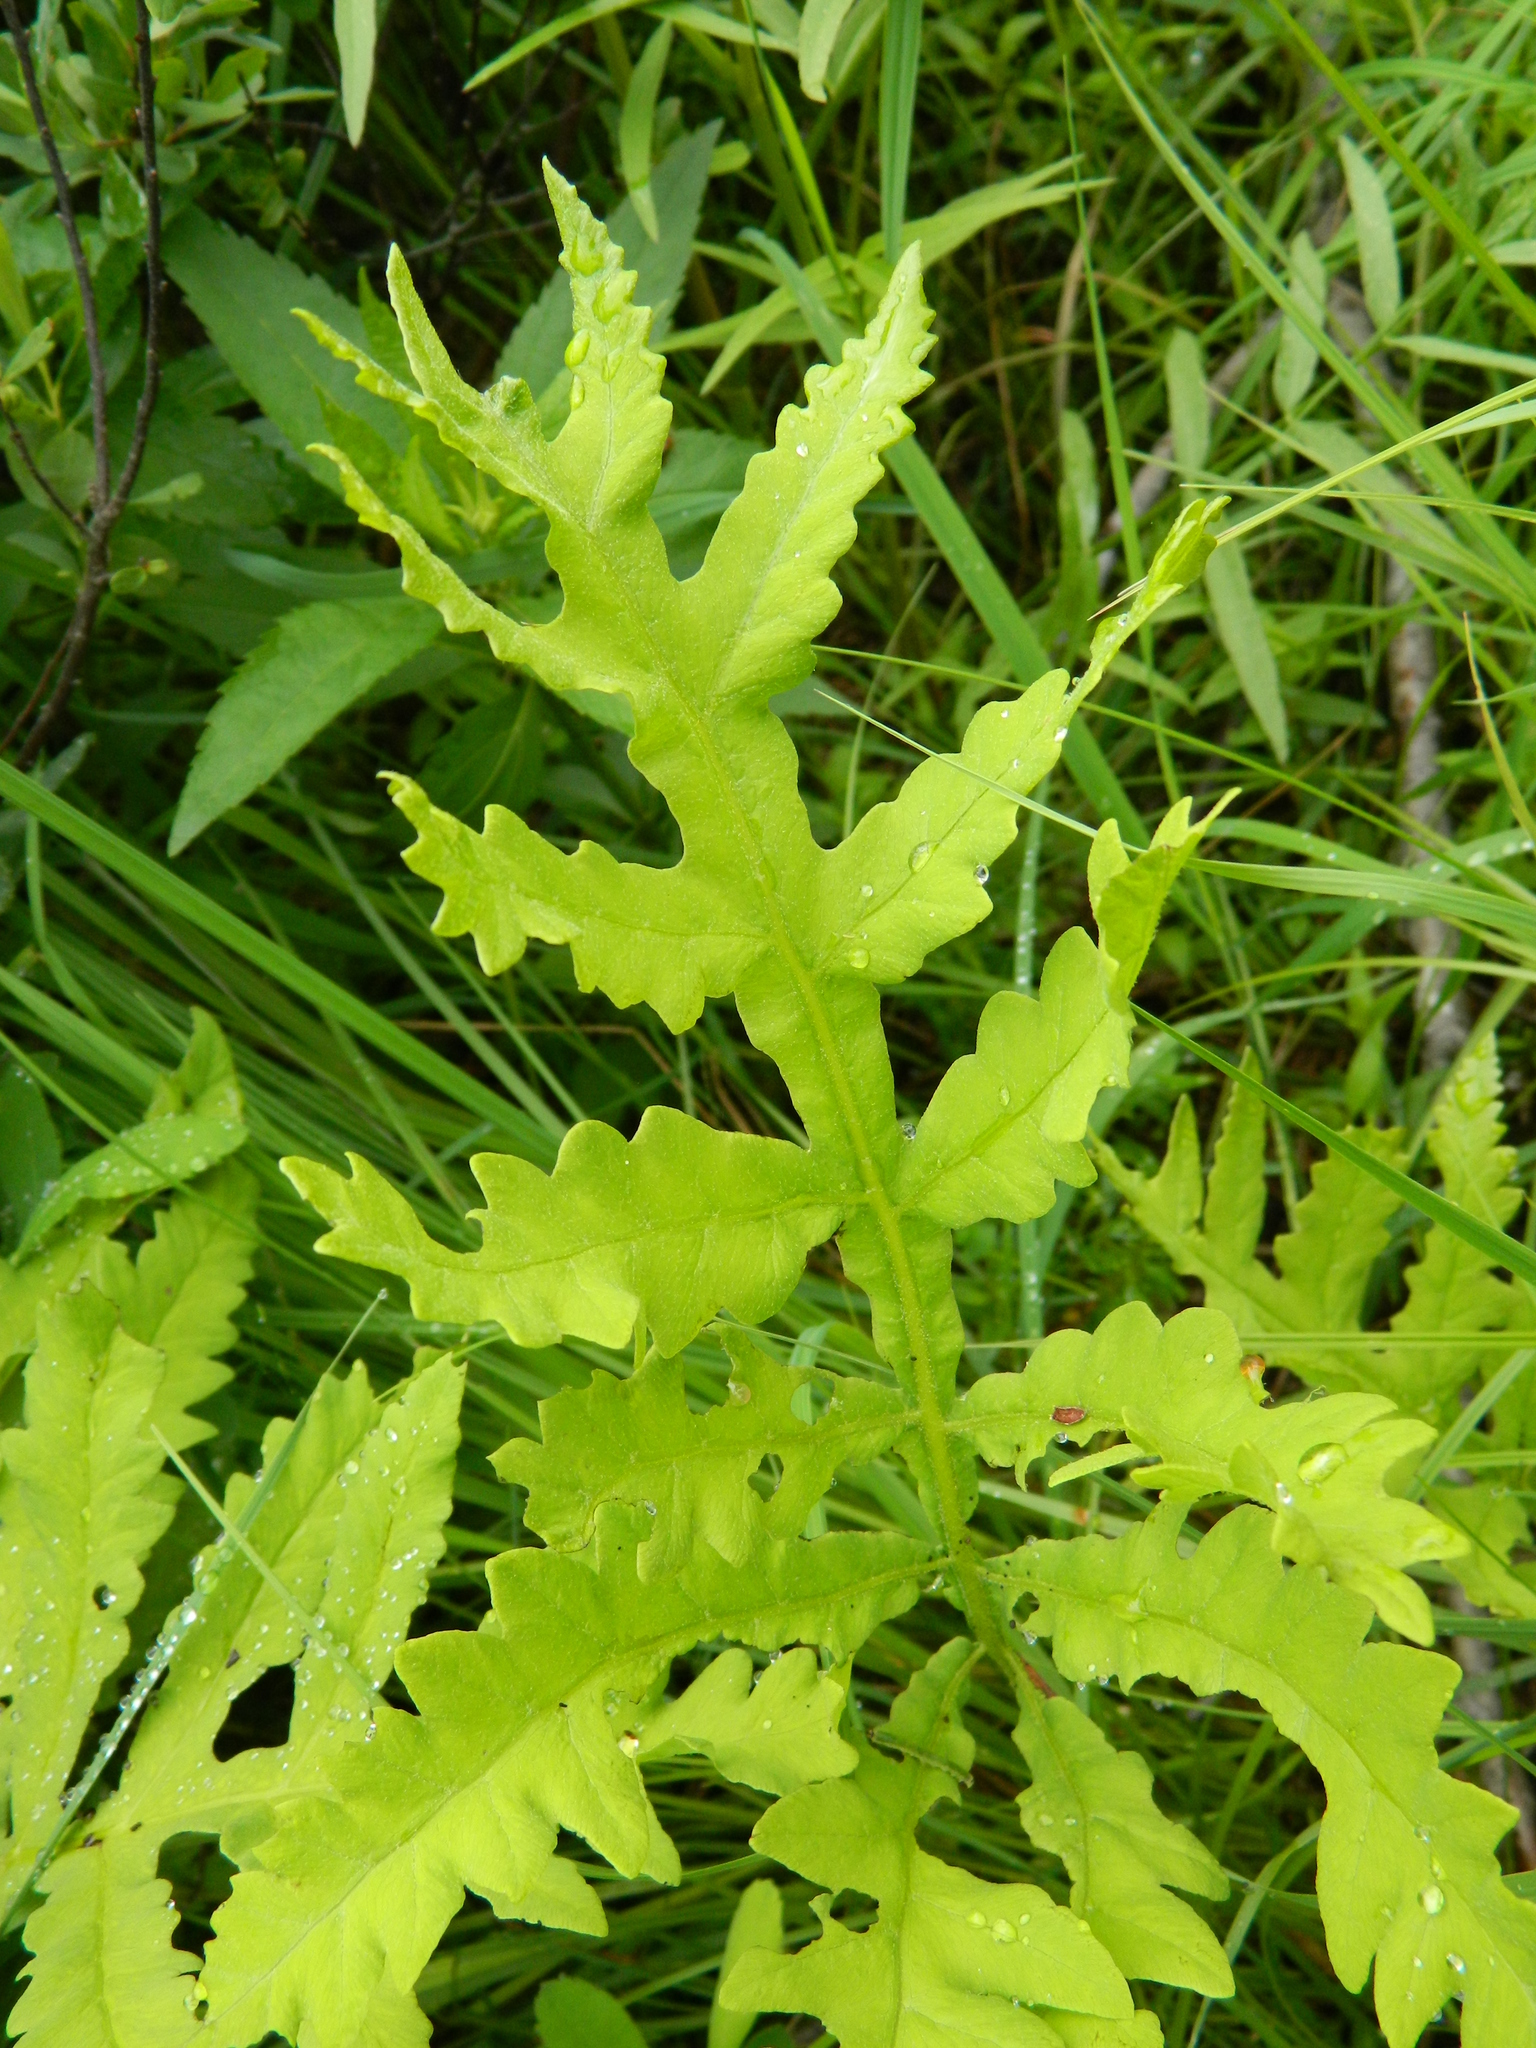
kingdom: Plantae
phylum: Tracheophyta
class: Polypodiopsida
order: Polypodiales
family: Onocleaceae
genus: Onoclea
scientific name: Onoclea sensibilis
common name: Sensitive fern
